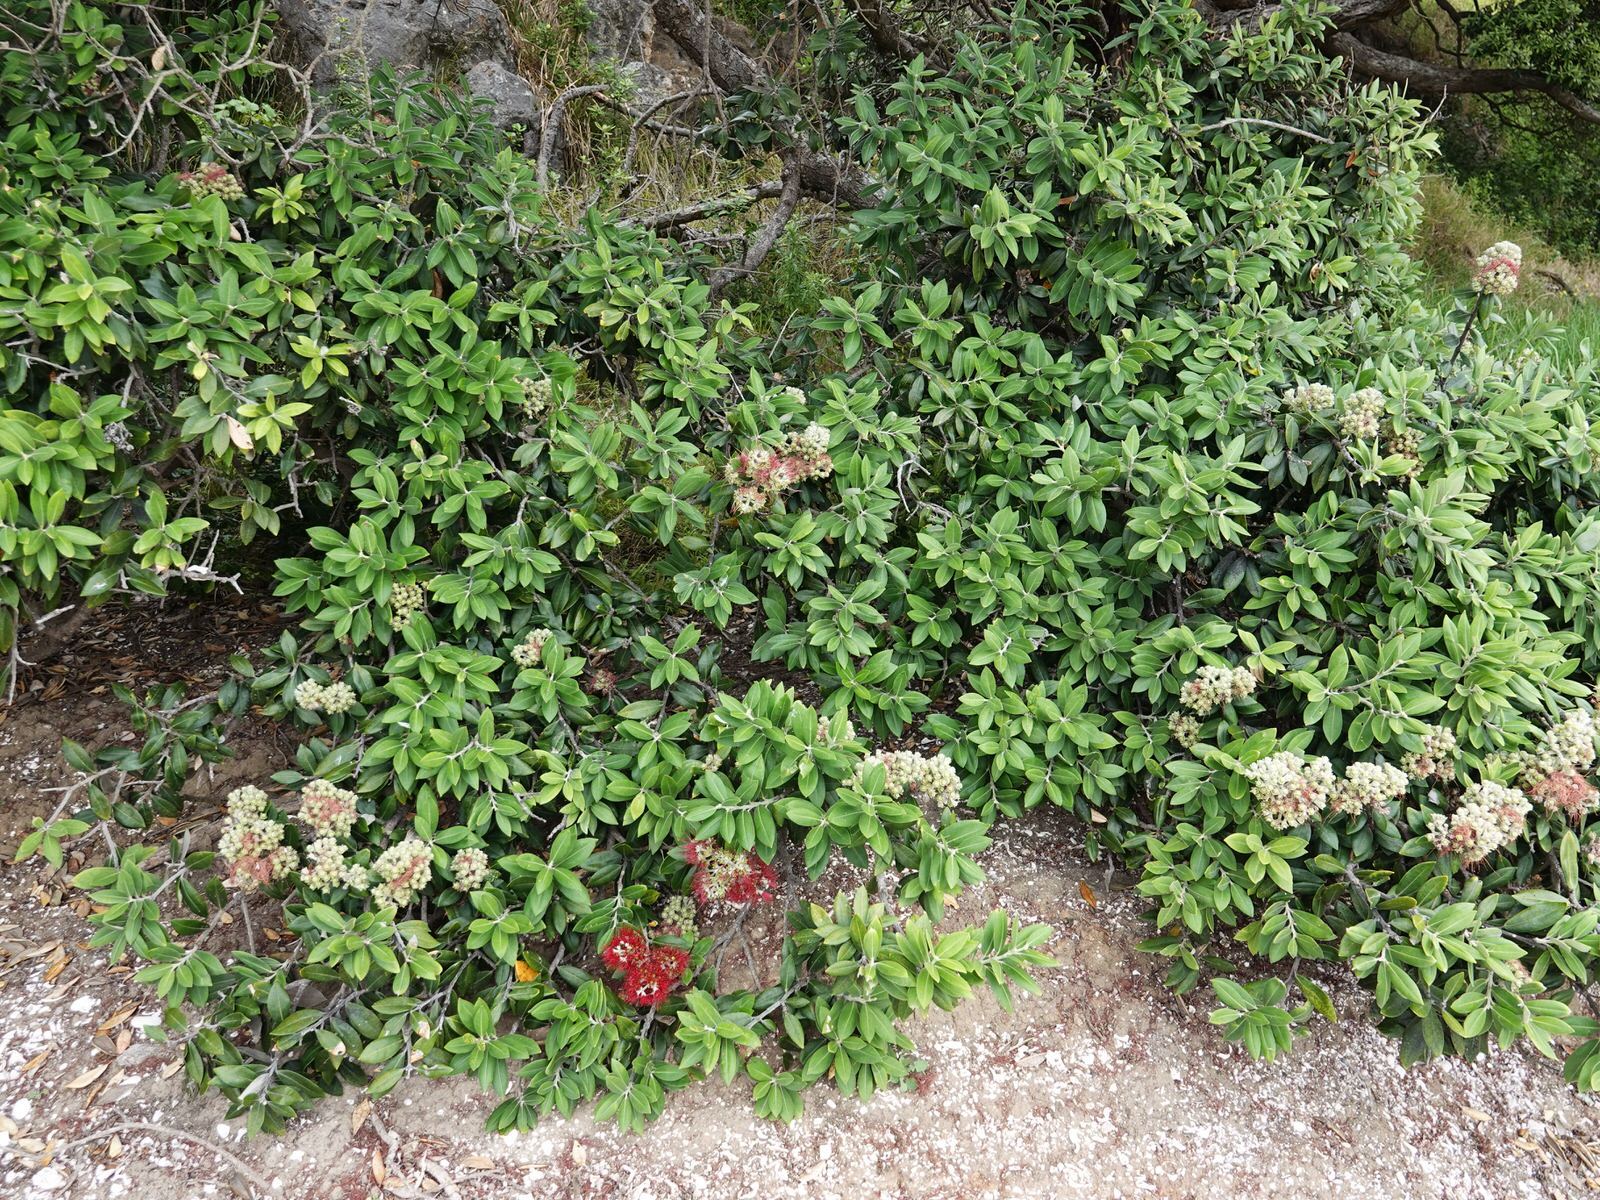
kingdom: Plantae
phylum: Tracheophyta
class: Magnoliopsida
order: Myrtales
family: Myrtaceae
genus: Metrosideros
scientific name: Metrosideros excelsa
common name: New zealand christmastree
